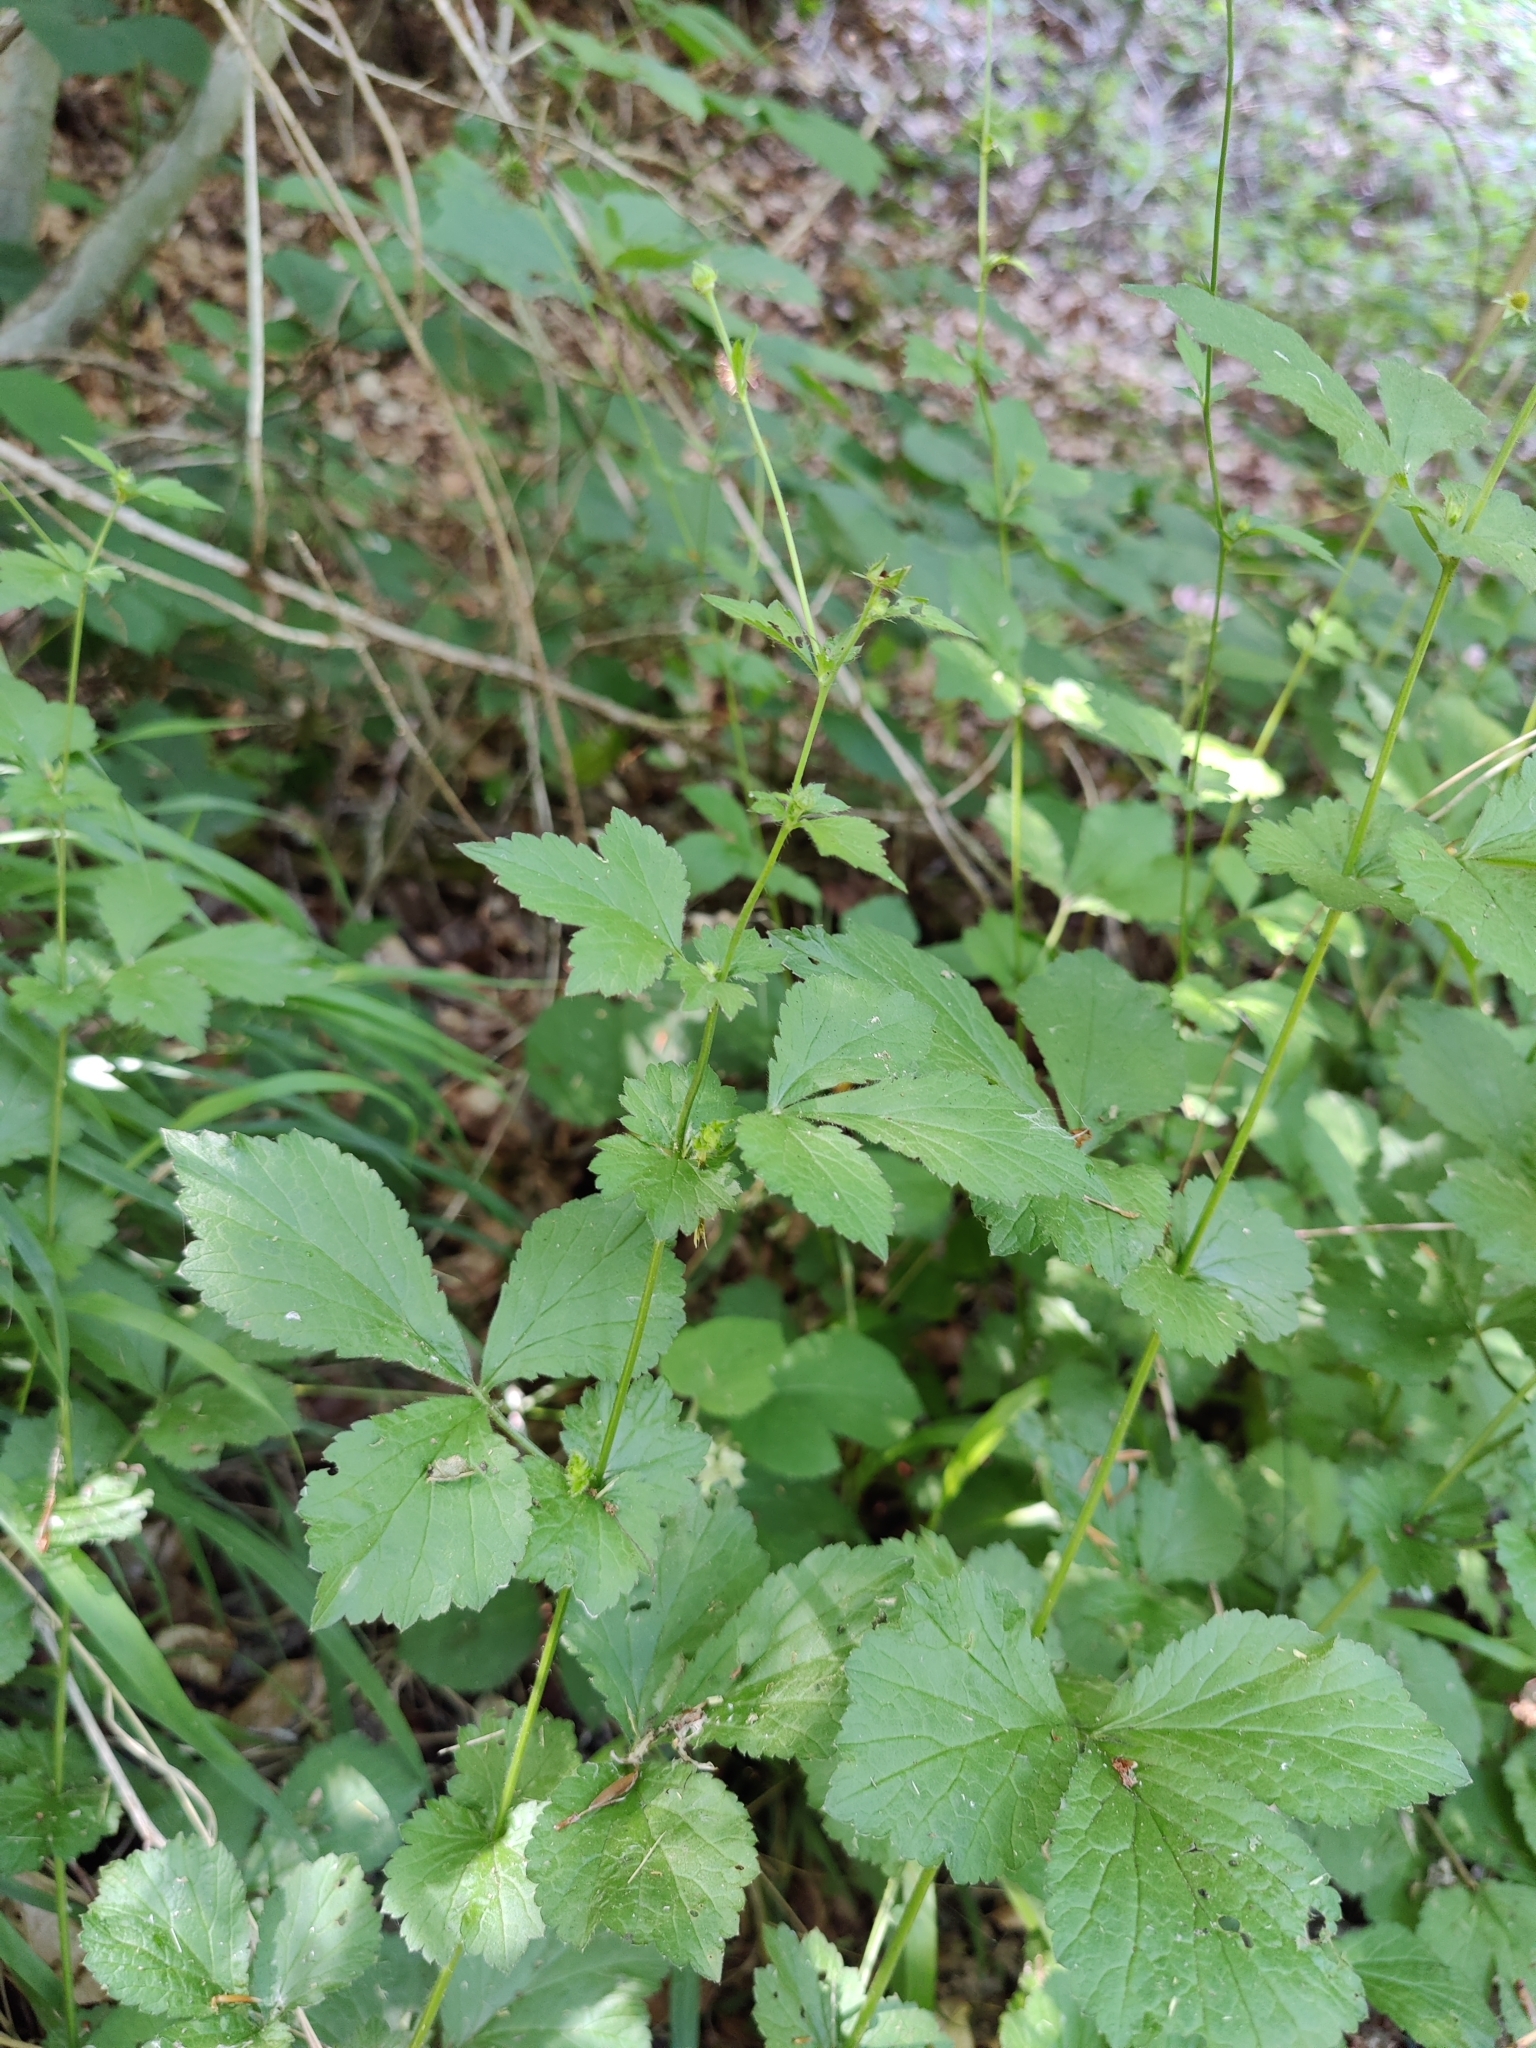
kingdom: Plantae
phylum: Tracheophyta
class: Magnoliopsida
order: Rosales
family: Rosaceae
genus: Geum
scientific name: Geum urbanum
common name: Wood avens
